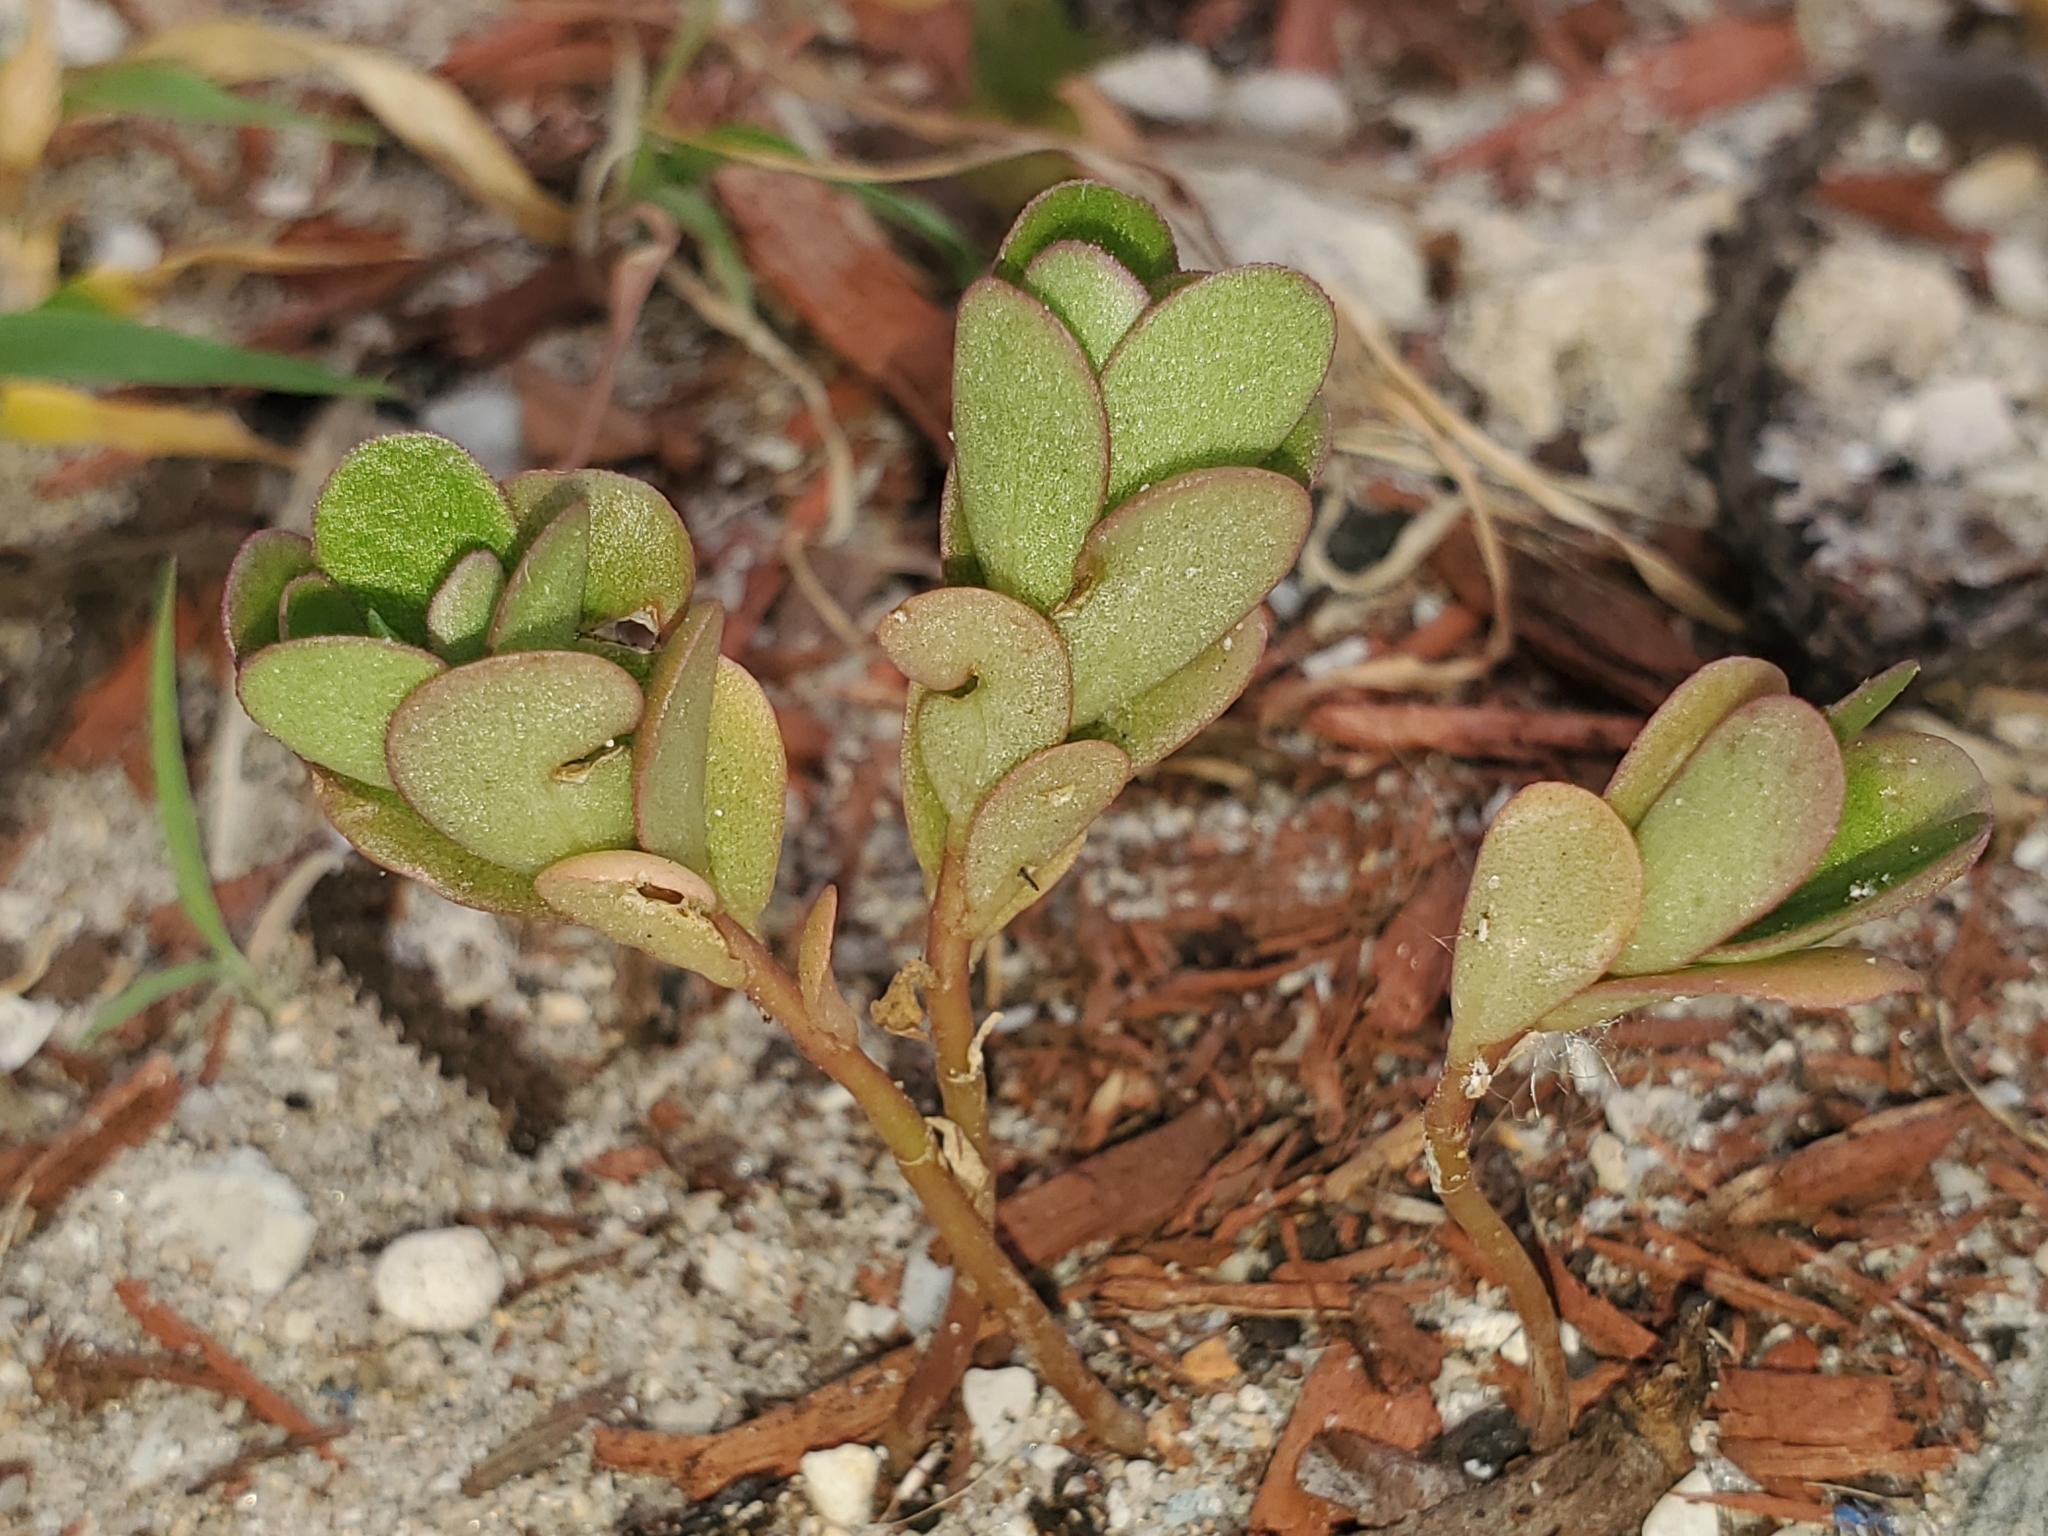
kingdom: Plantae
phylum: Tracheophyta
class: Magnoliopsida
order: Caryophyllales
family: Portulacaceae
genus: Portulaca
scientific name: Portulaca oleracea
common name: Common purslane
